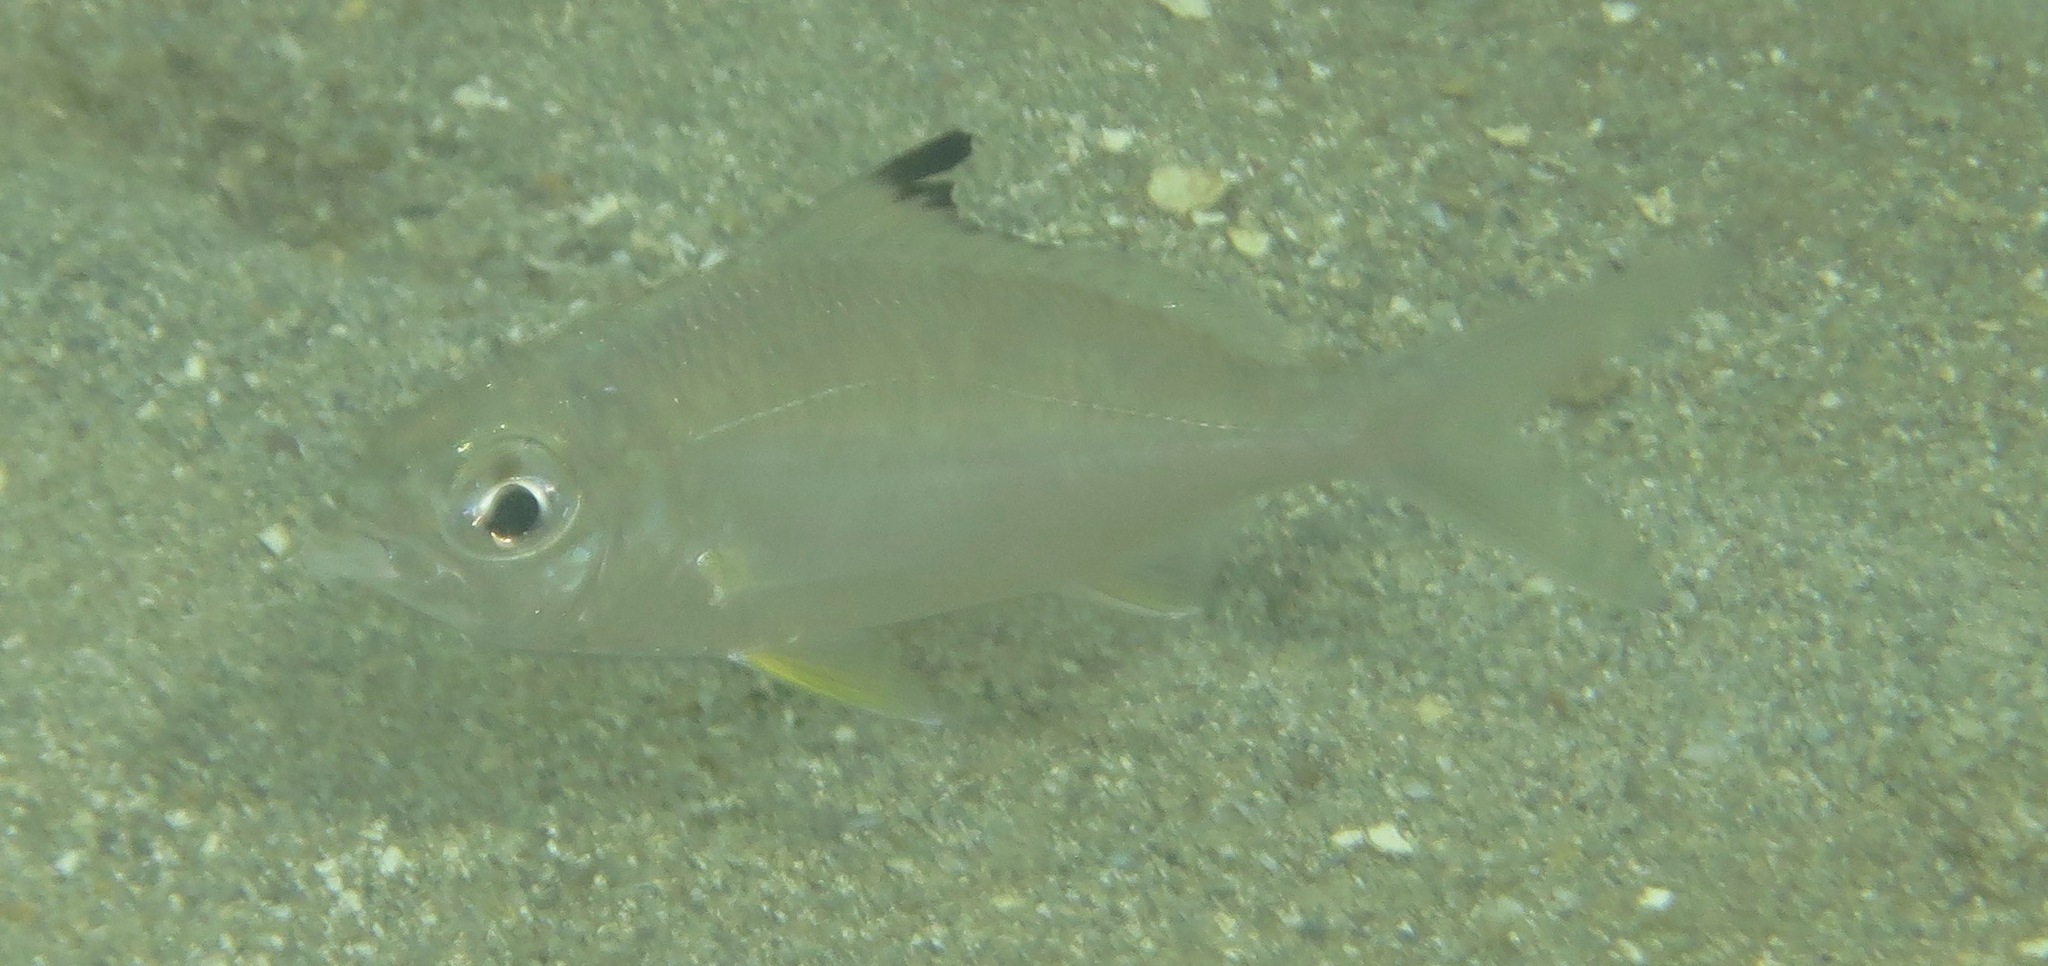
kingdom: Animalia
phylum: Chordata
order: Perciformes
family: Gerreidae
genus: Gerres
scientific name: Gerres oyena
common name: Common silver-biddy
